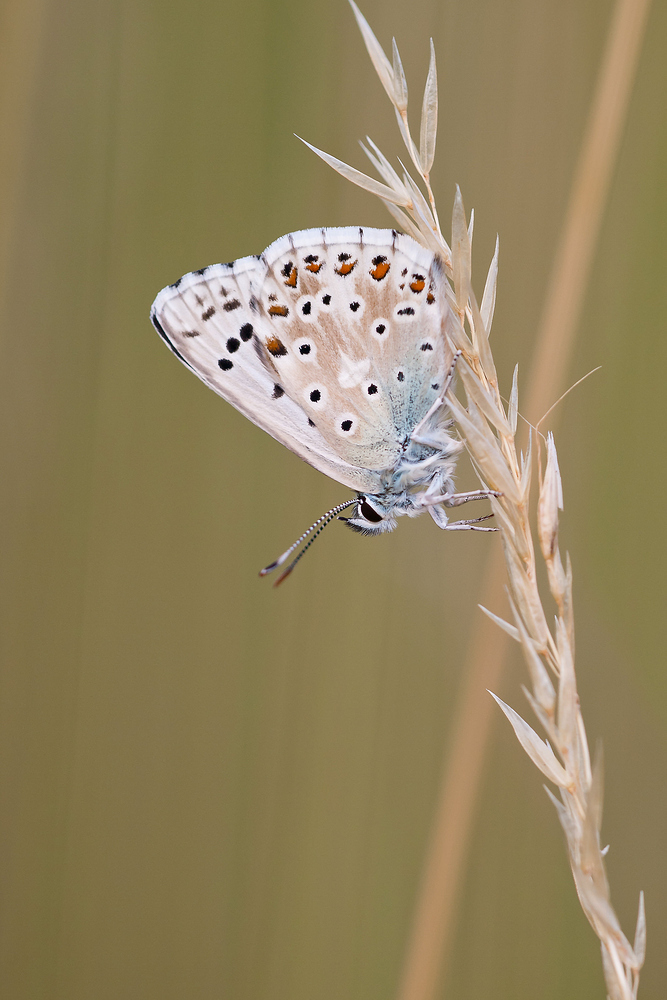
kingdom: Animalia
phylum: Arthropoda
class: Insecta
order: Lepidoptera
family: Lycaenidae
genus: Lysandra
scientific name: Lysandra coridon
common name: Chalkhill blue
